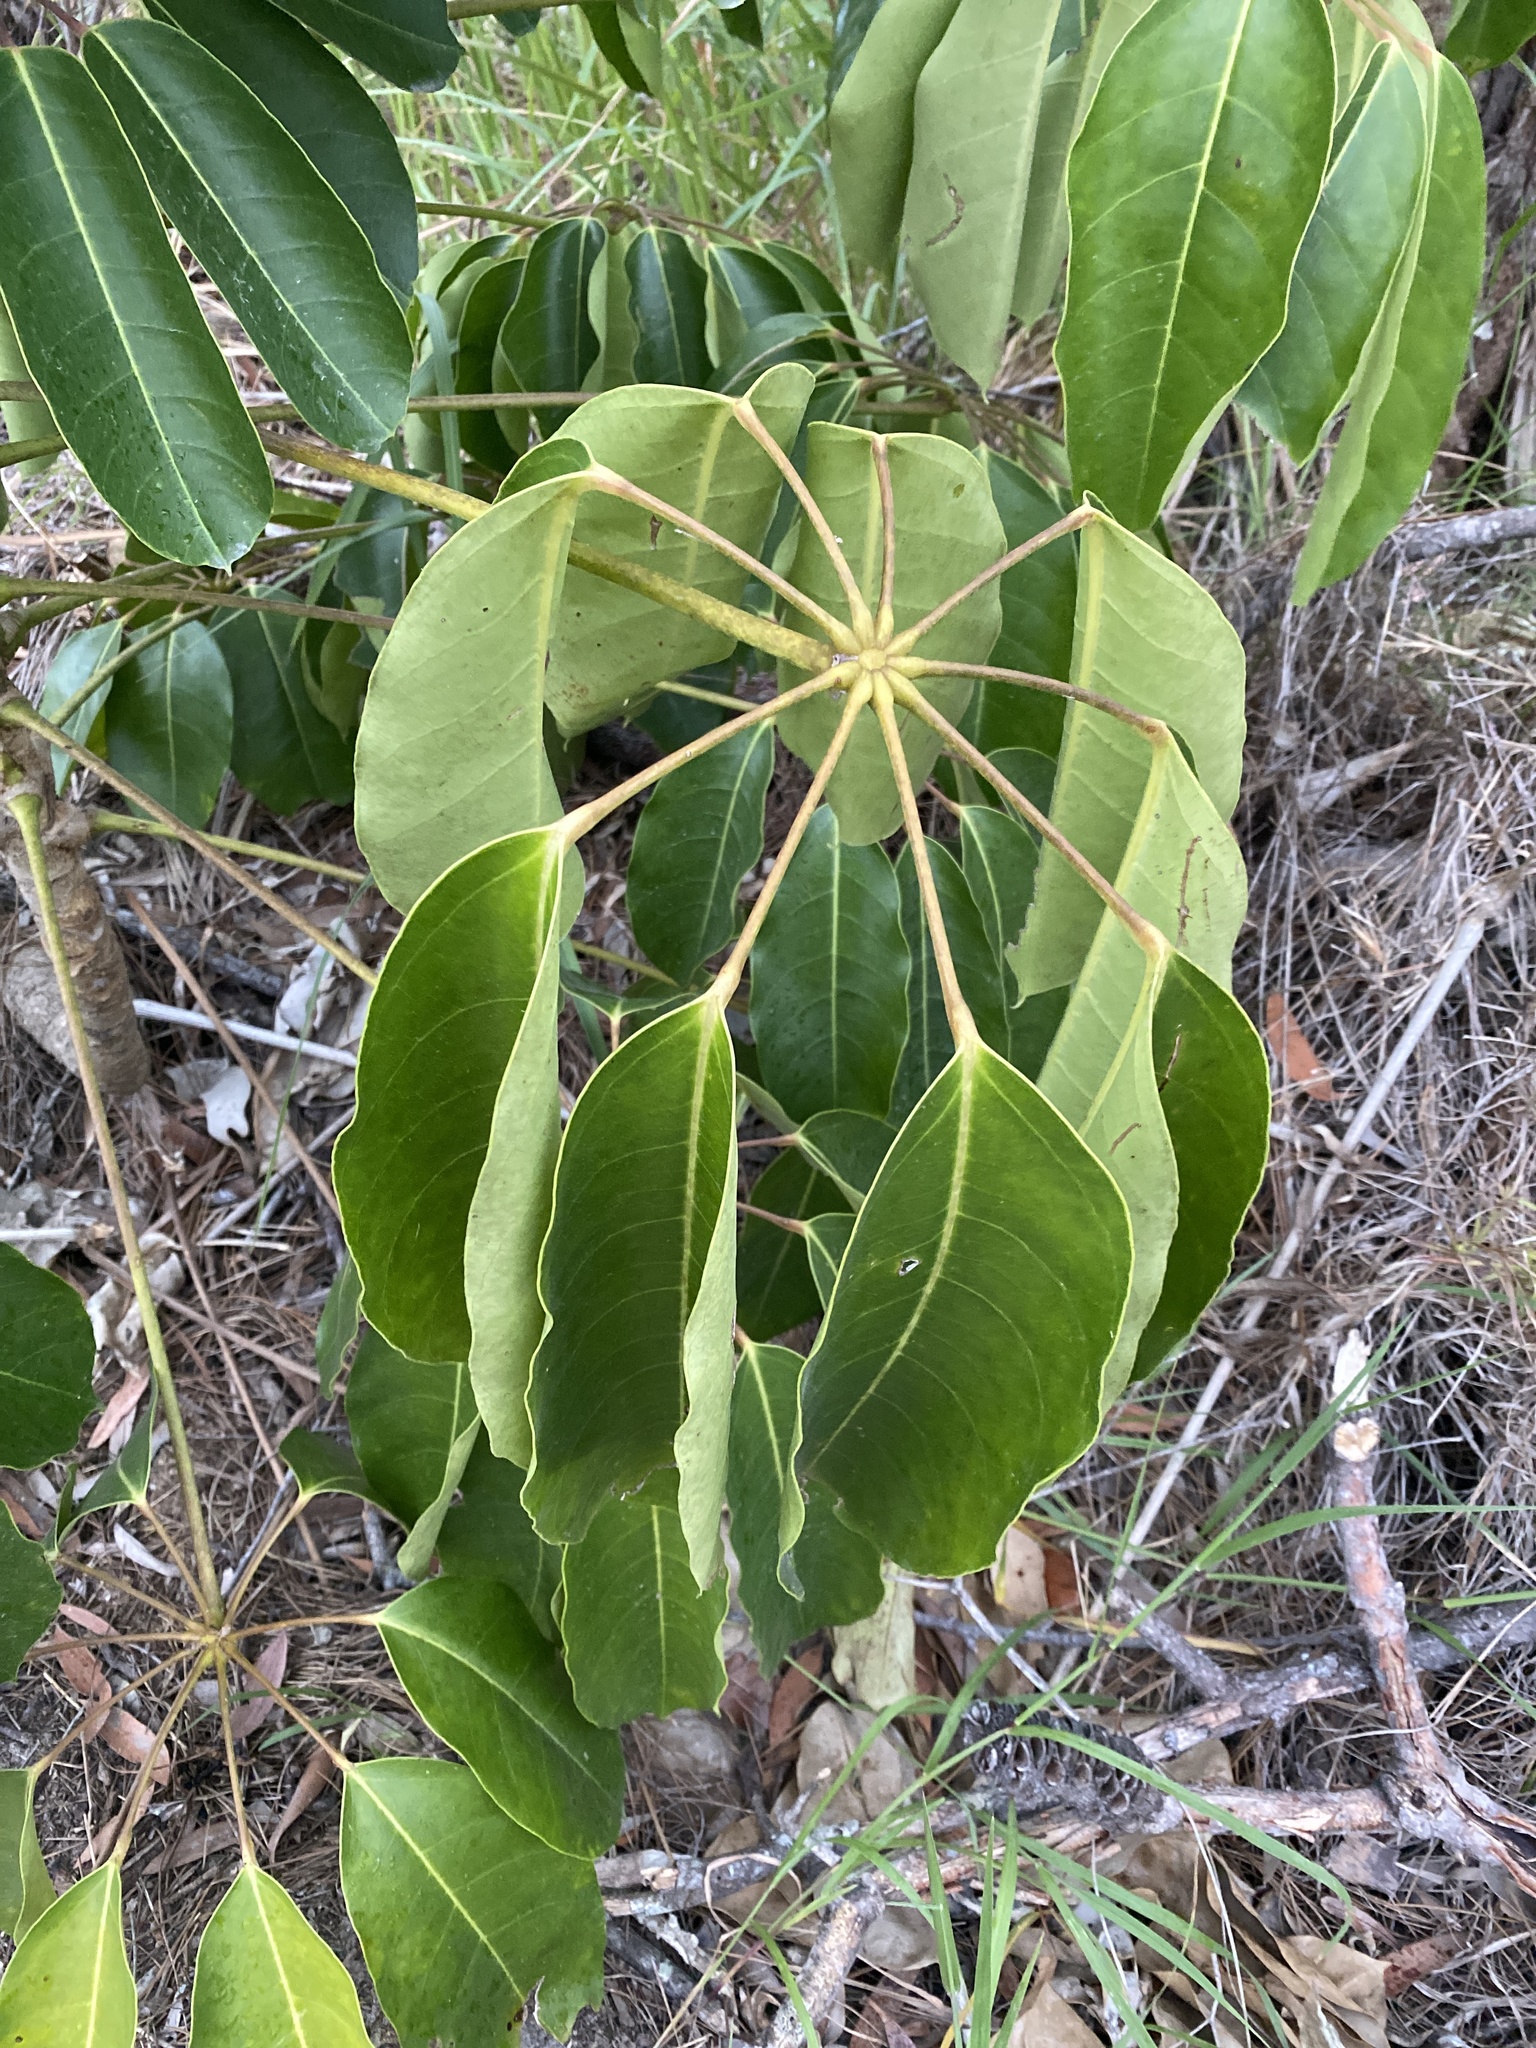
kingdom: Plantae
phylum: Tracheophyta
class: Magnoliopsida
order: Apiales
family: Araliaceae
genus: Heptapleurum
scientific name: Heptapleurum actinophyllum
